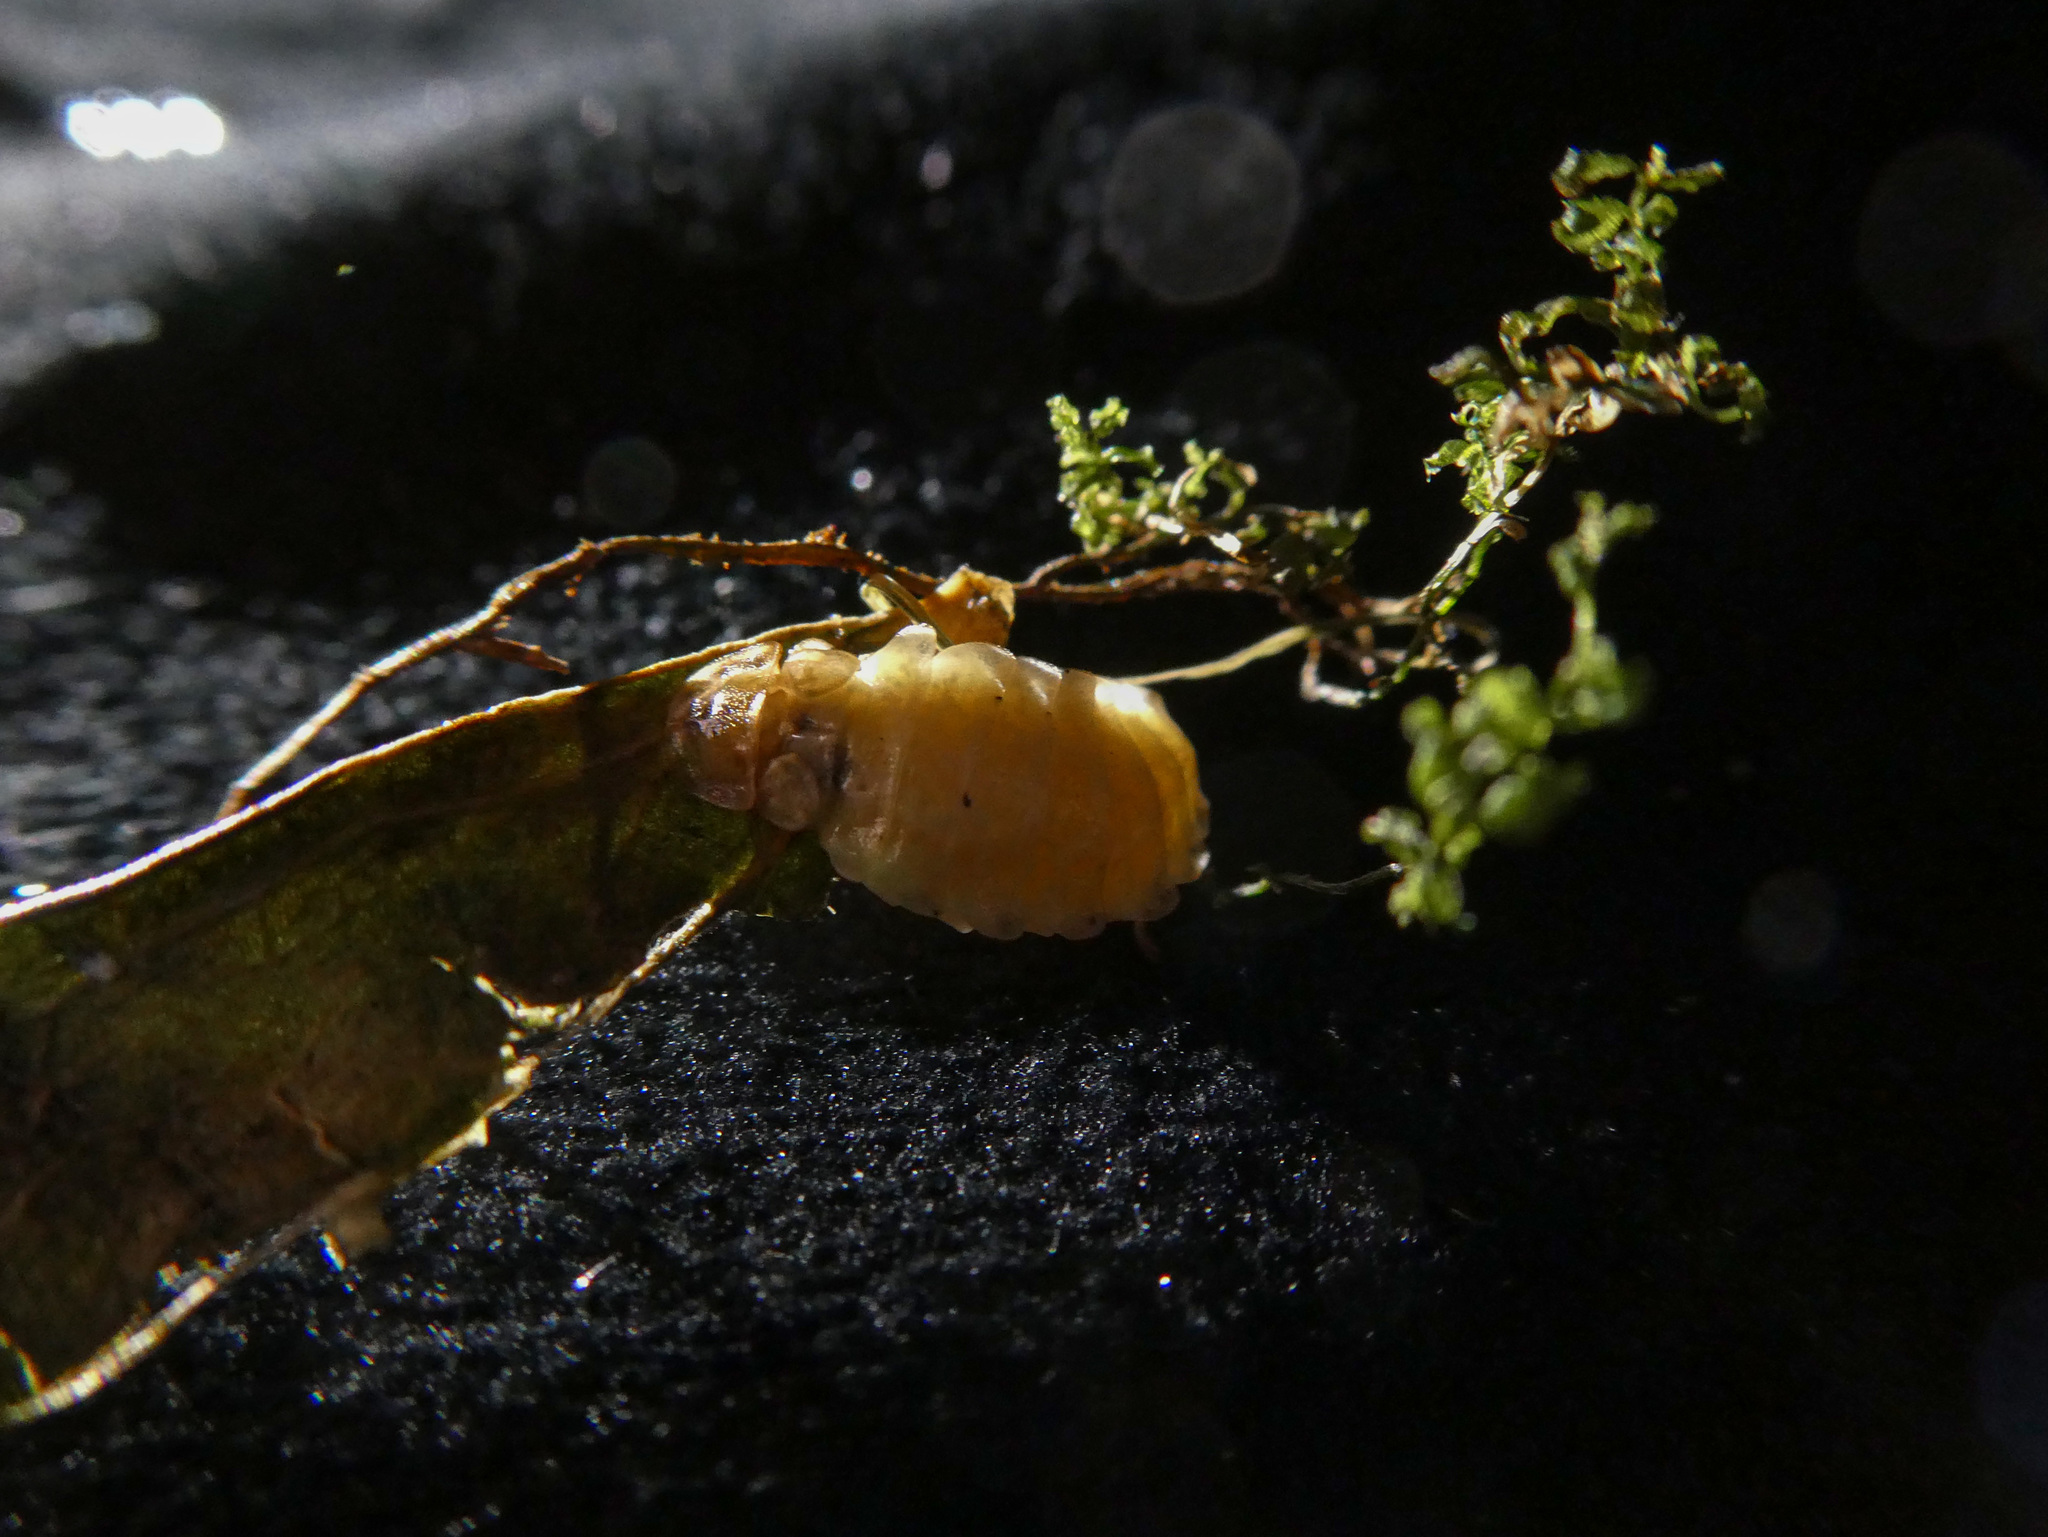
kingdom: Animalia
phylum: Arthropoda
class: Insecta
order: Coleoptera
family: Lampyridae
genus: Lamprohiza
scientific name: Lamprohiza splendidula
